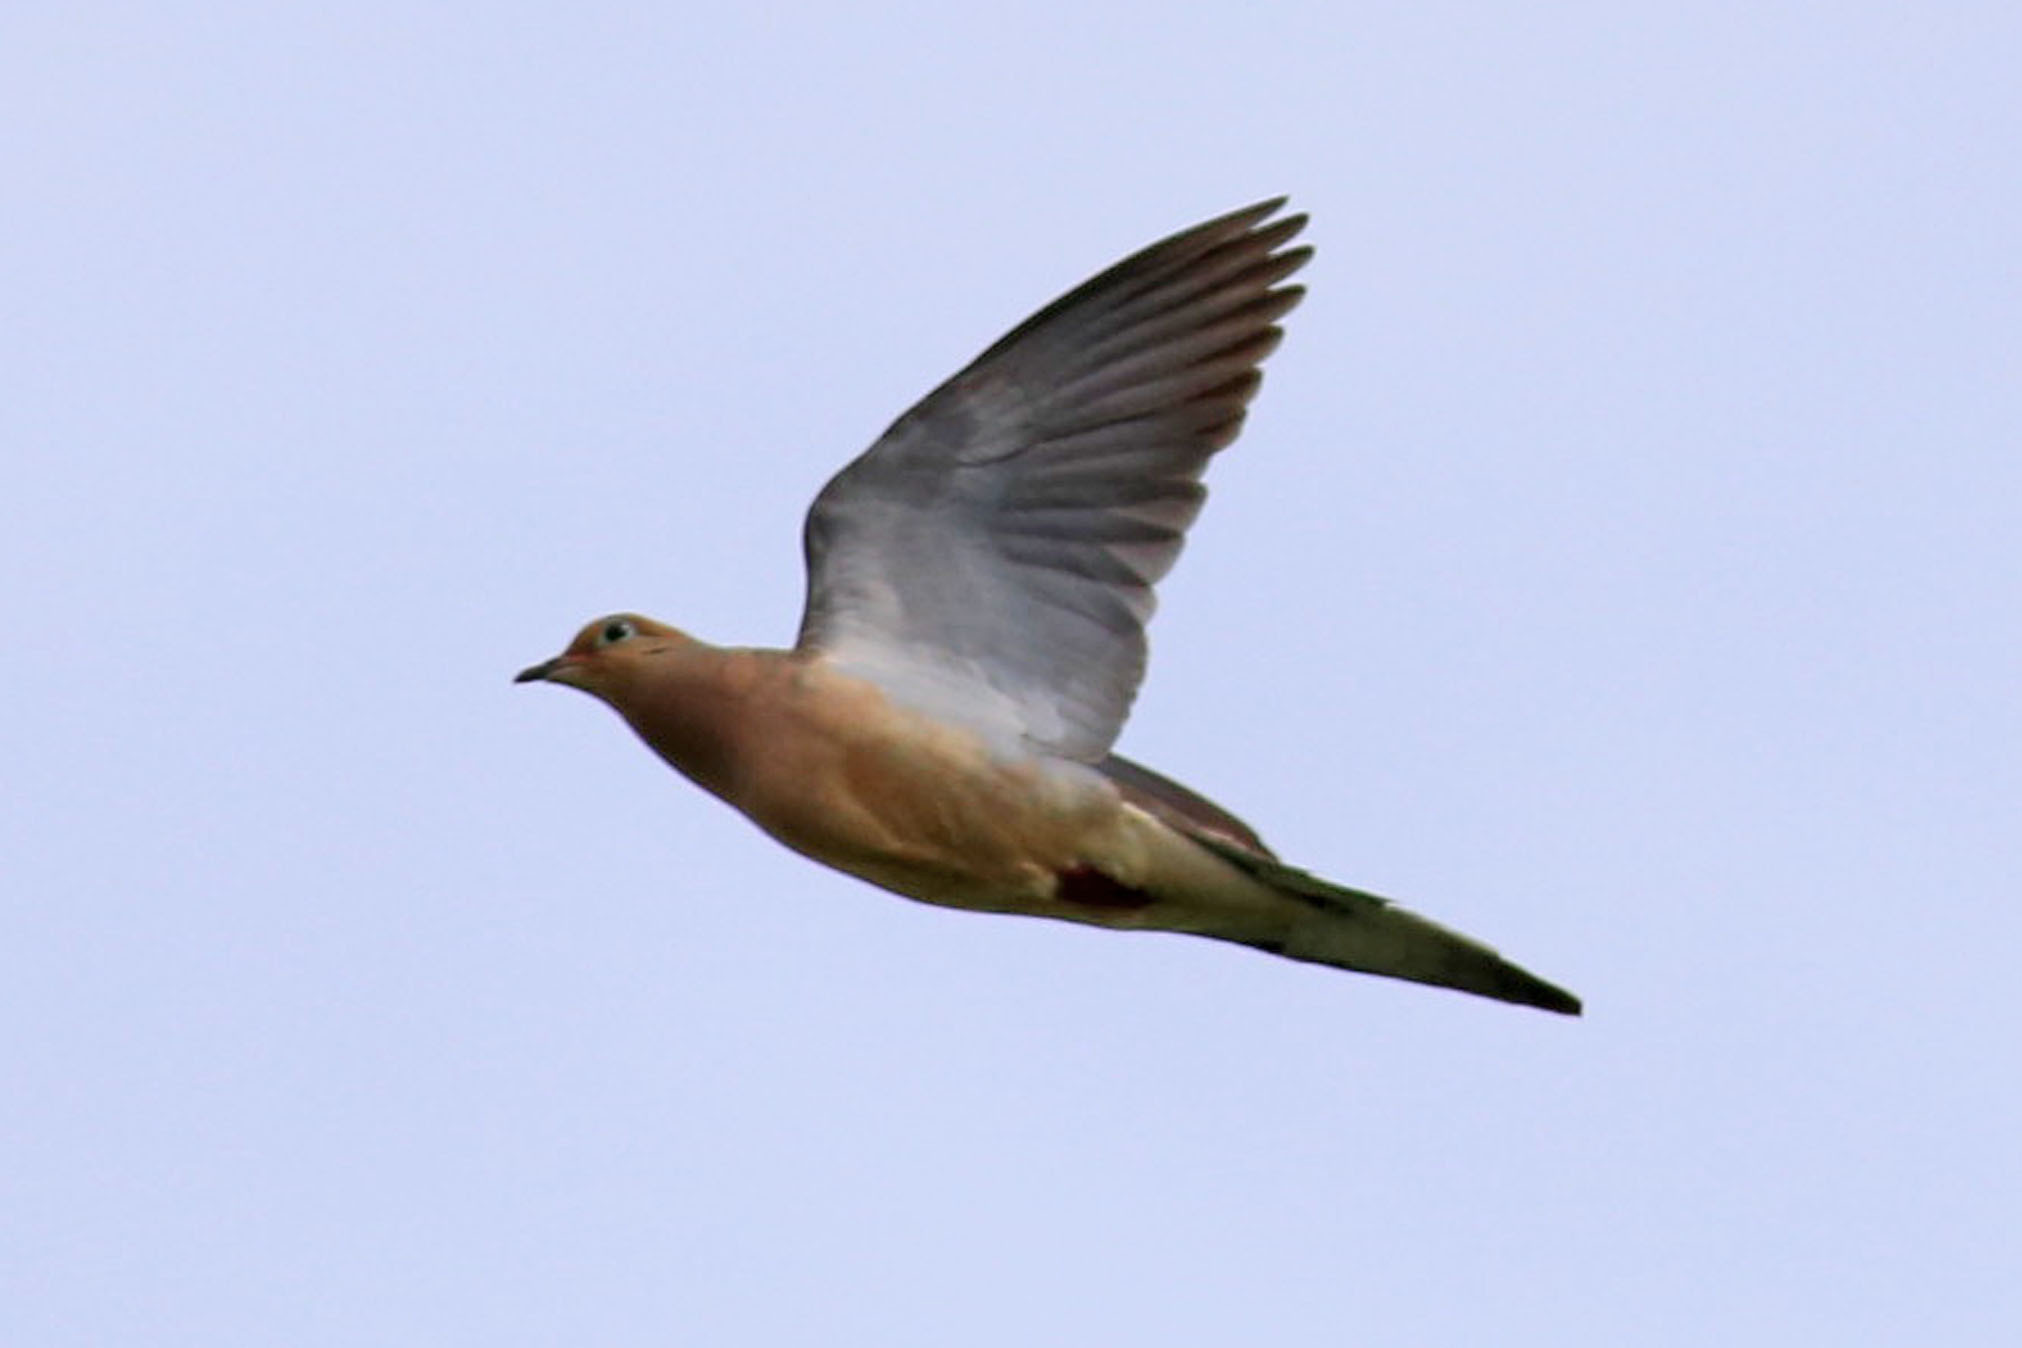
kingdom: Animalia
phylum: Chordata
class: Aves
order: Columbiformes
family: Columbidae
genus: Zenaida
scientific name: Zenaida macroura
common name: Mourning dove
